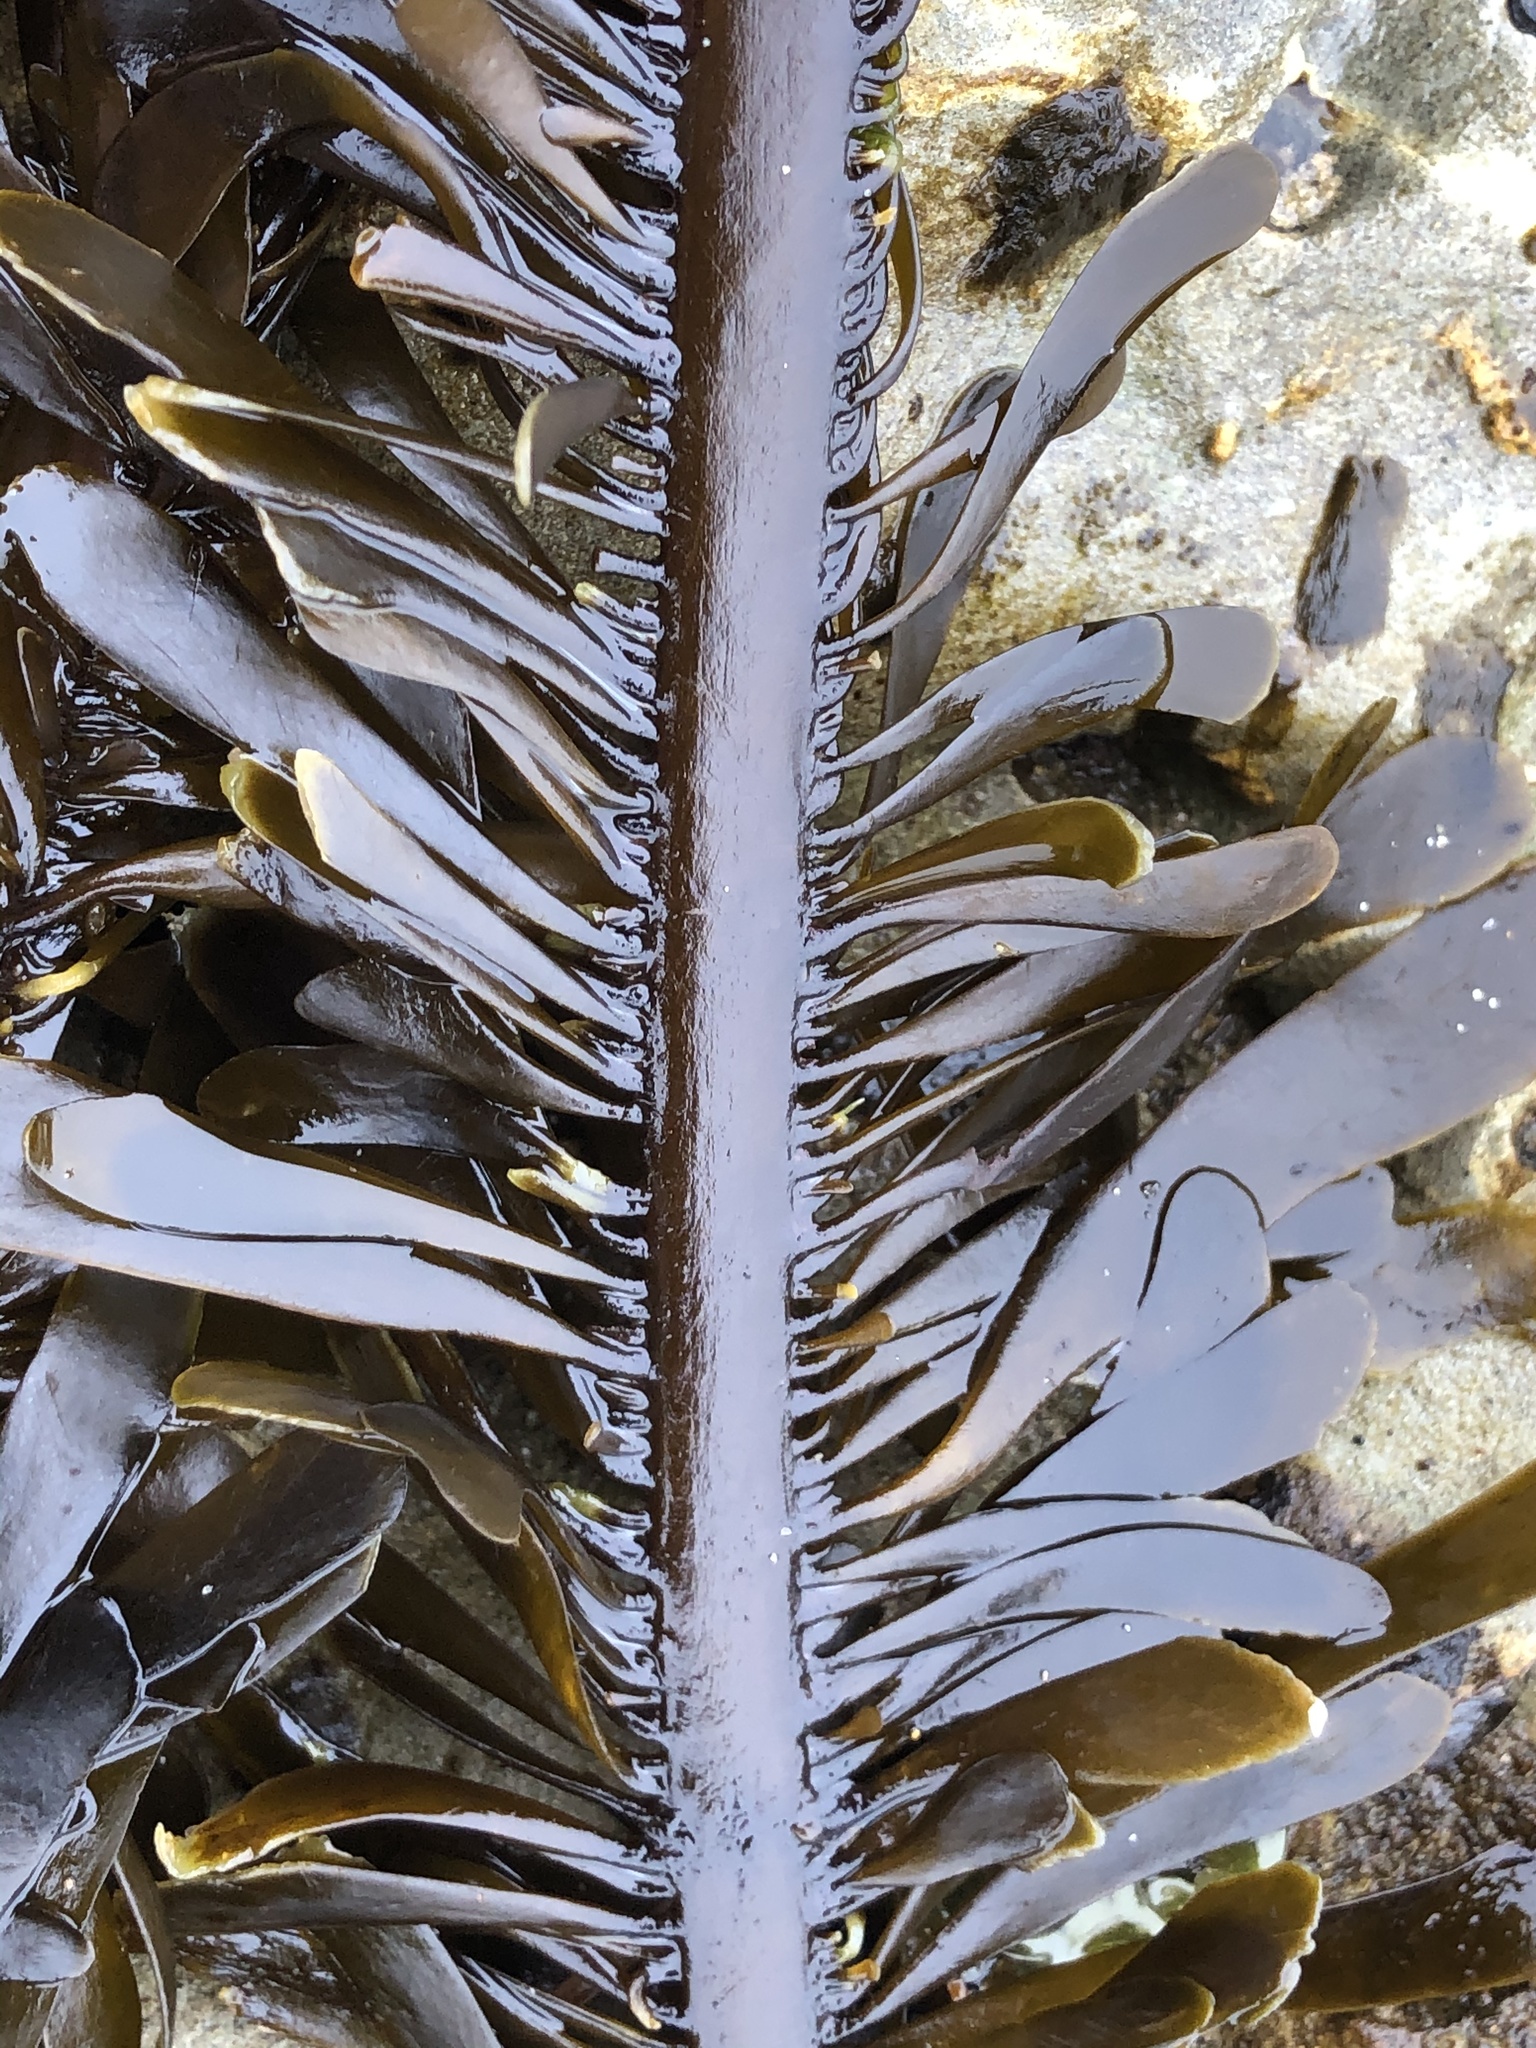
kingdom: Chromista
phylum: Ochrophyta
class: Phaeophyceae
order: Laminariales
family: Lessoniaceae
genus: Egregia
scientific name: Egregia menziesii
